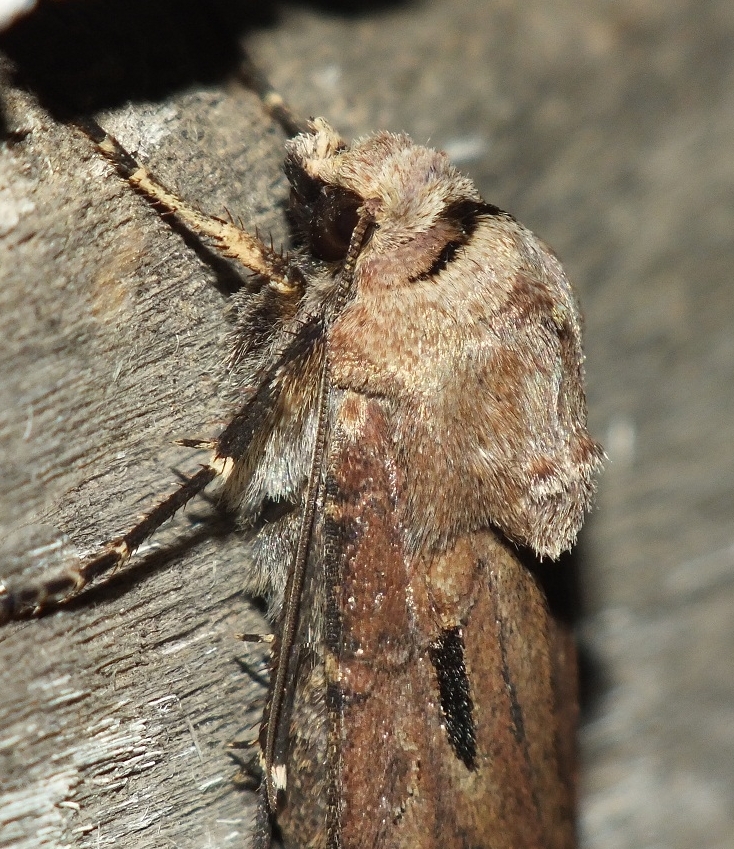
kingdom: Animalia
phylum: Arthropoda
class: Insecta
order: Lepidoptera
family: Noctuidae
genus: Agrotis
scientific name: Agrotis exclamationis
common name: Heart and dart
